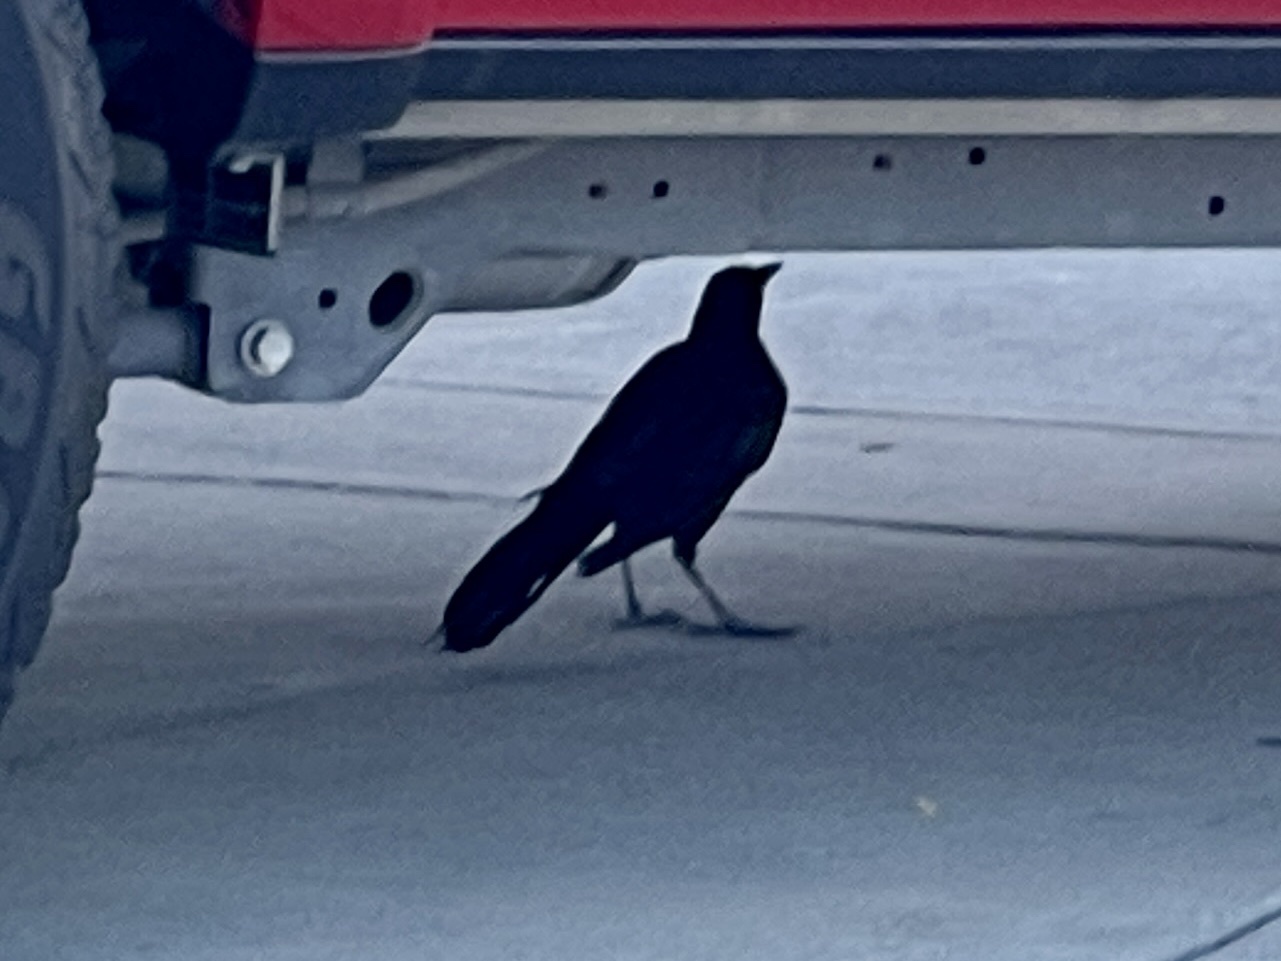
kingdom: Animalia
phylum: Chordata
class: Aves
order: Passeriformes
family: Icteridae
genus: Quiscalus
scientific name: Quiscalus mexicanus
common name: Great-tailed grackle
